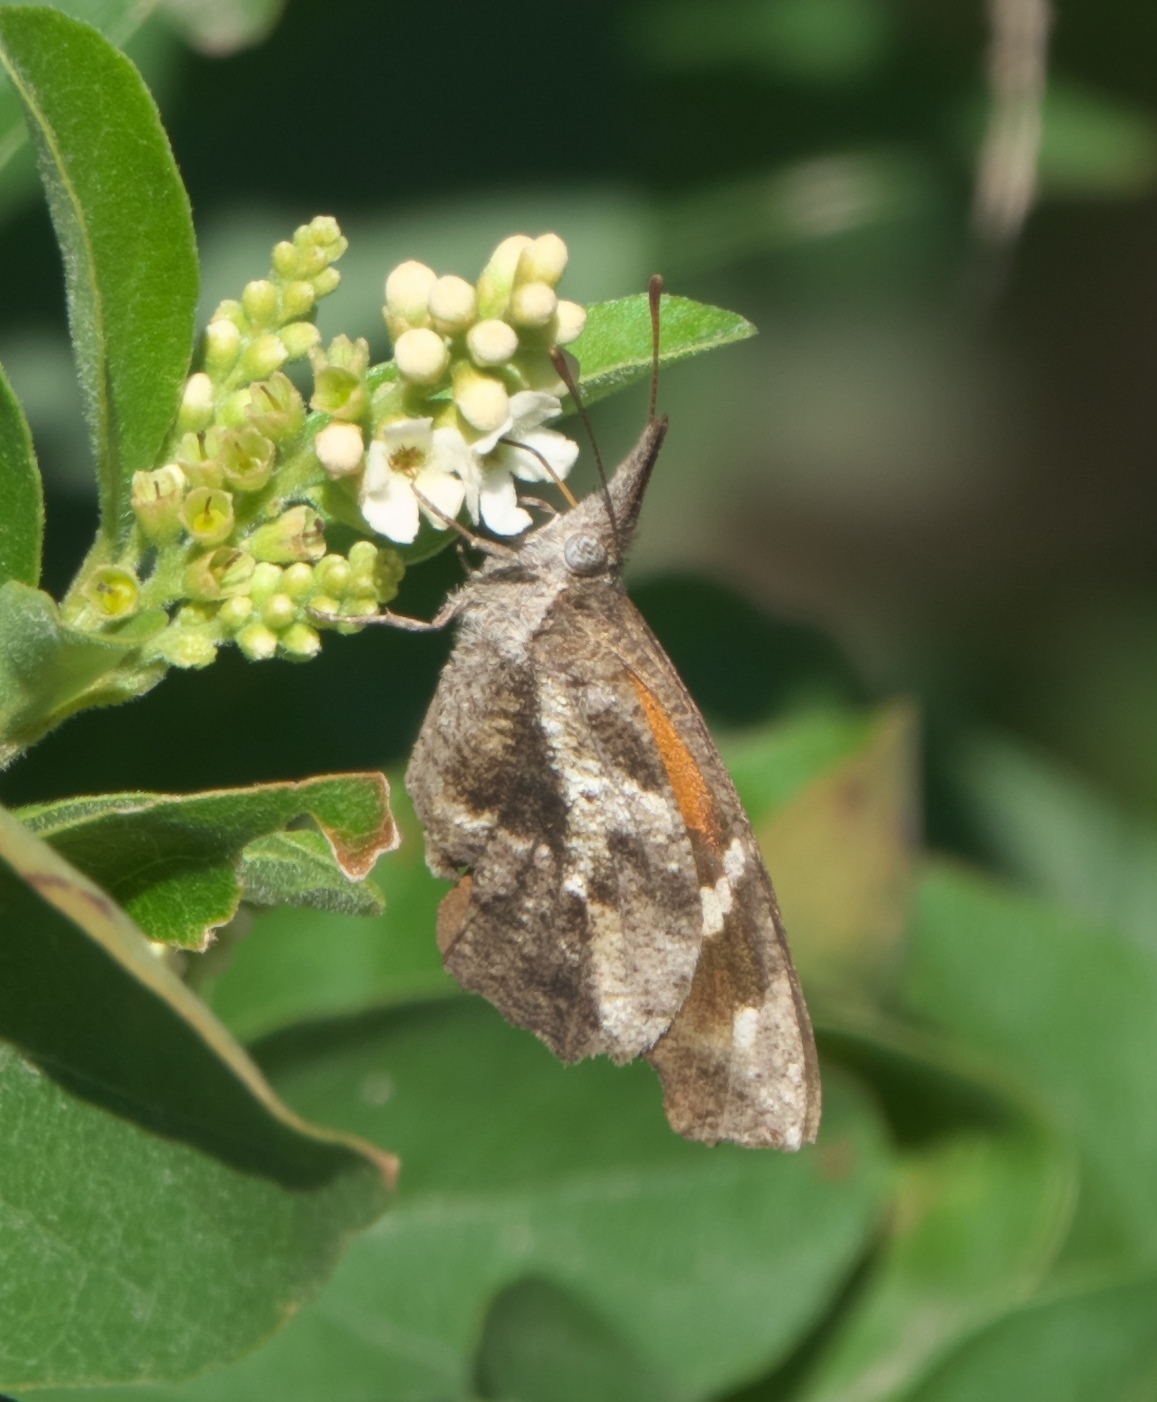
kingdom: Animalia
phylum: Arthropoda
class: Insecta
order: Lepidoptera
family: Nymphalidae
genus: Libytheana
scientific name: Libytheana carinenta
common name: American snout
